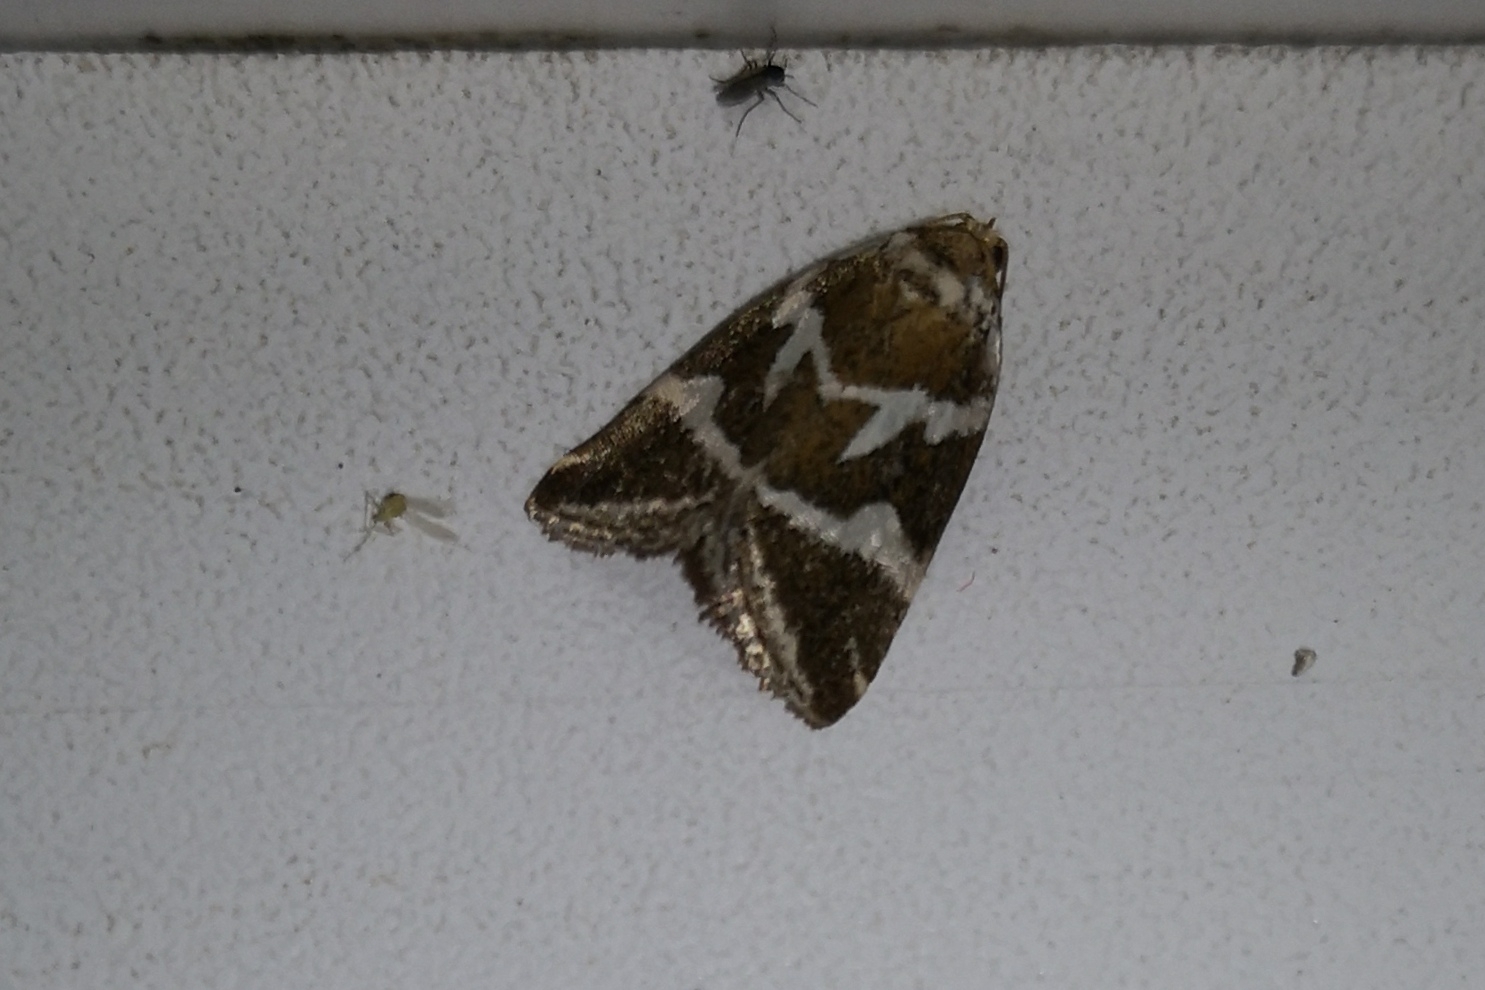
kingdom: Animalia
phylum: Arthropoda
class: Insecta
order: Lepidoptera
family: Noctuidae
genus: Deltote
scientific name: Deltote bankiana
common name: Silver barred
